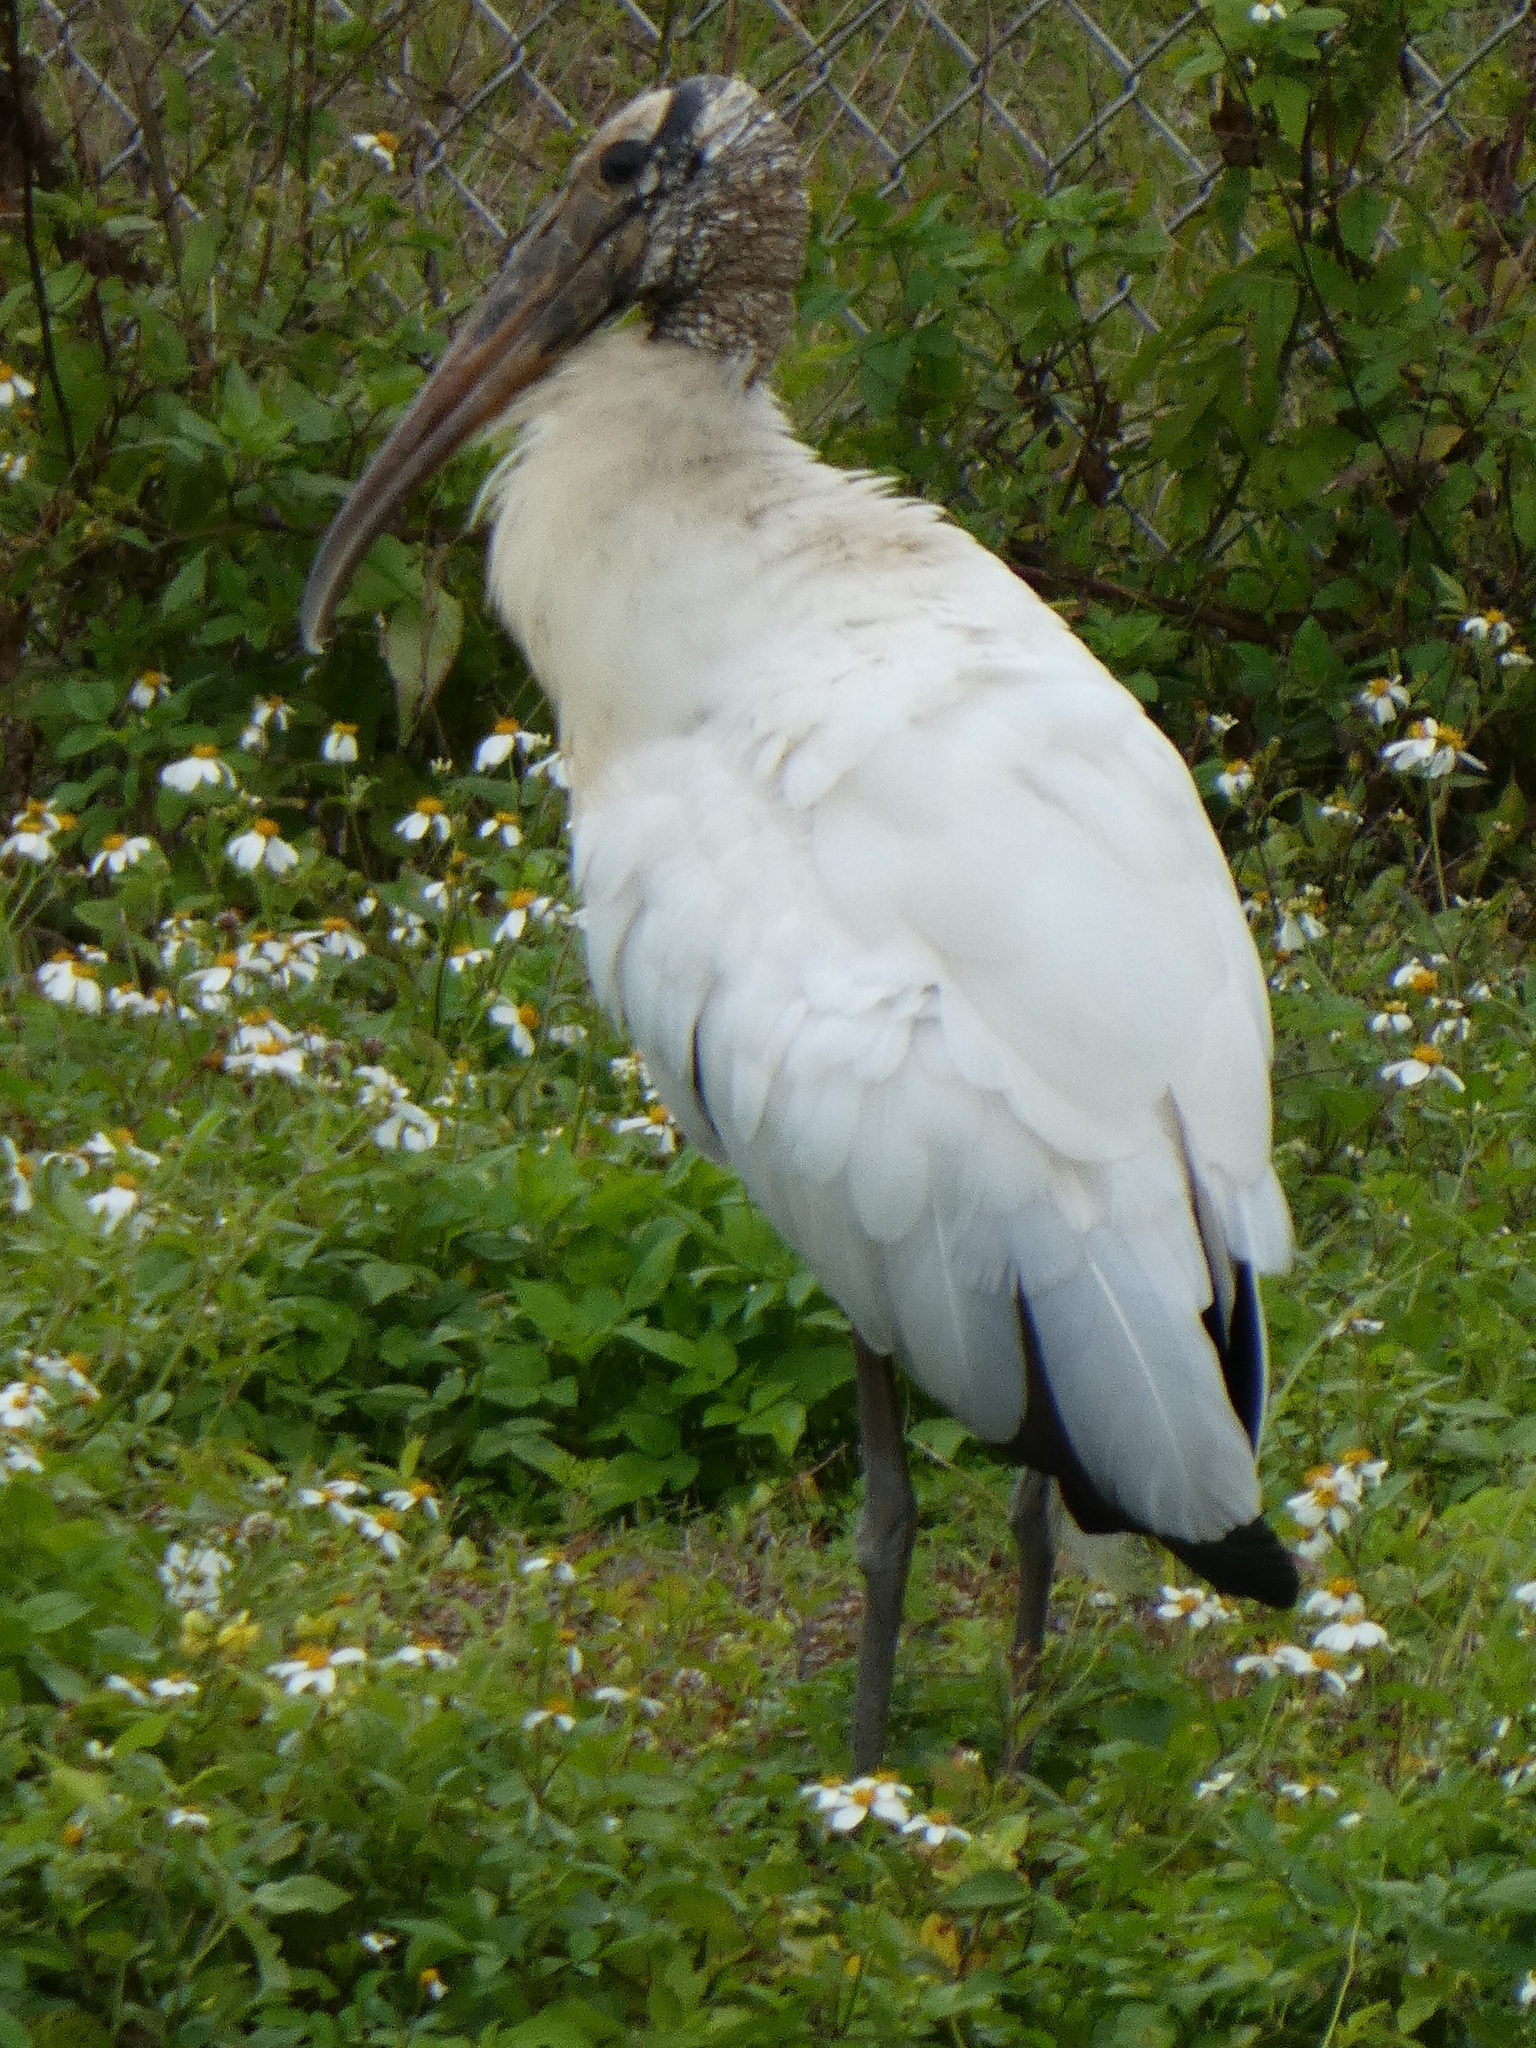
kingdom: Animalia
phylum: Chordata
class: Aves
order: Ciconiiformes
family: Ciconiidae
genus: Mycteria
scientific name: Mycteria americana
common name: Wood stork
